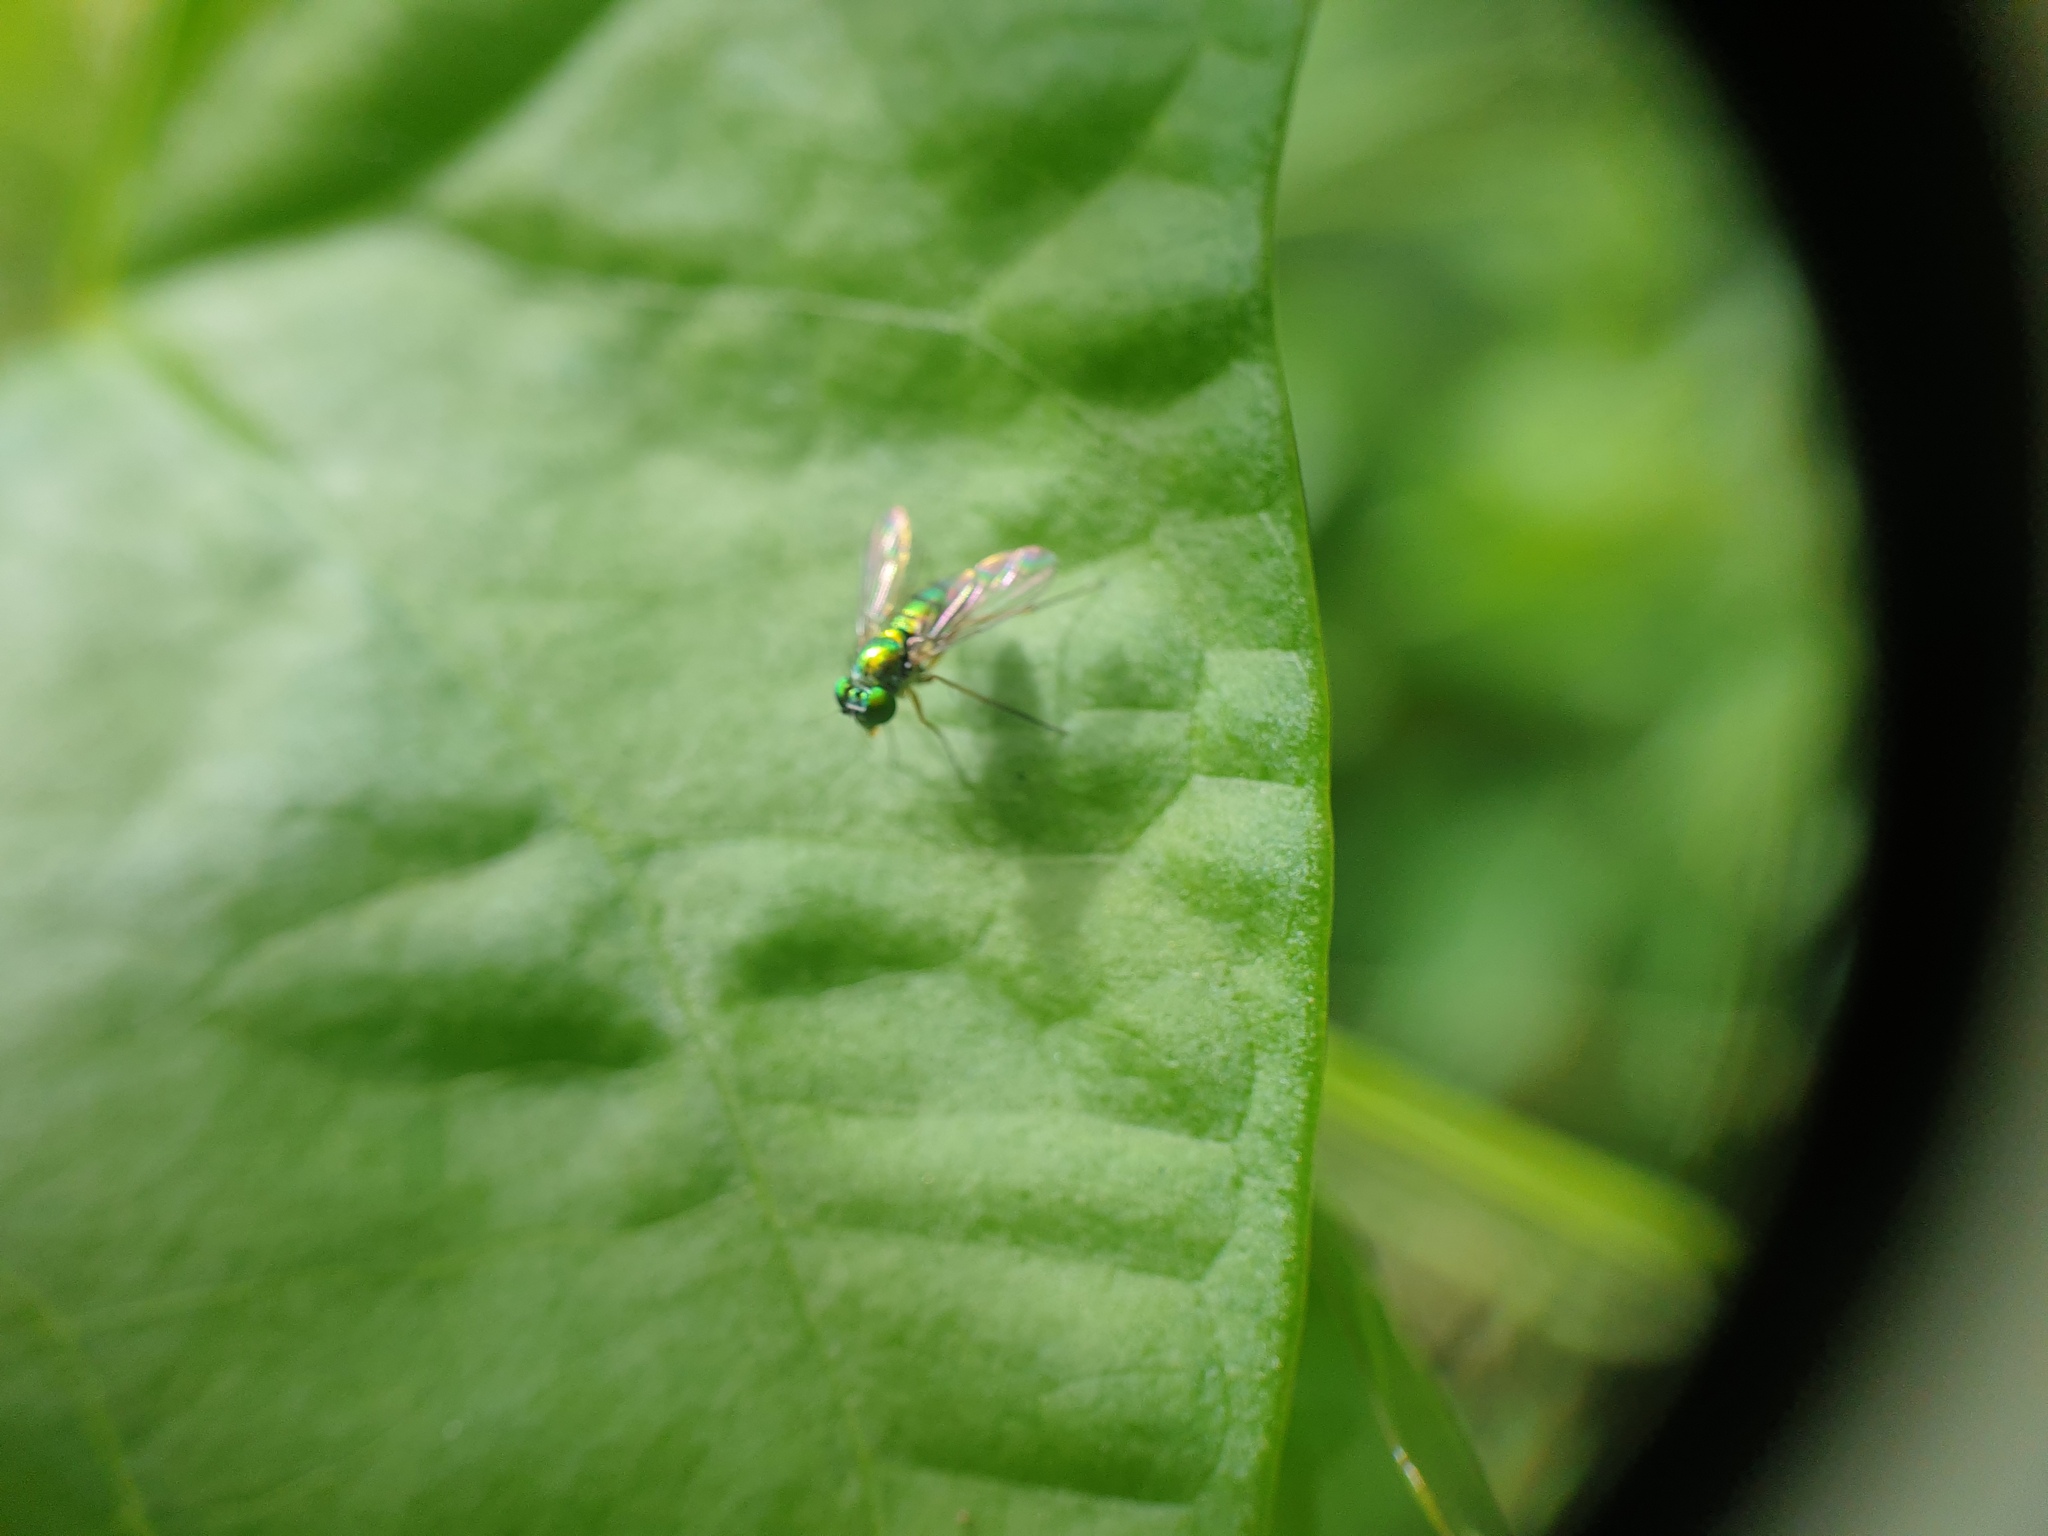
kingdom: Animalia
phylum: Arthropoda
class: Insecta
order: Diptera
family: Dolichopodidae
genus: Condylostylus
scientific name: Condylostylus
